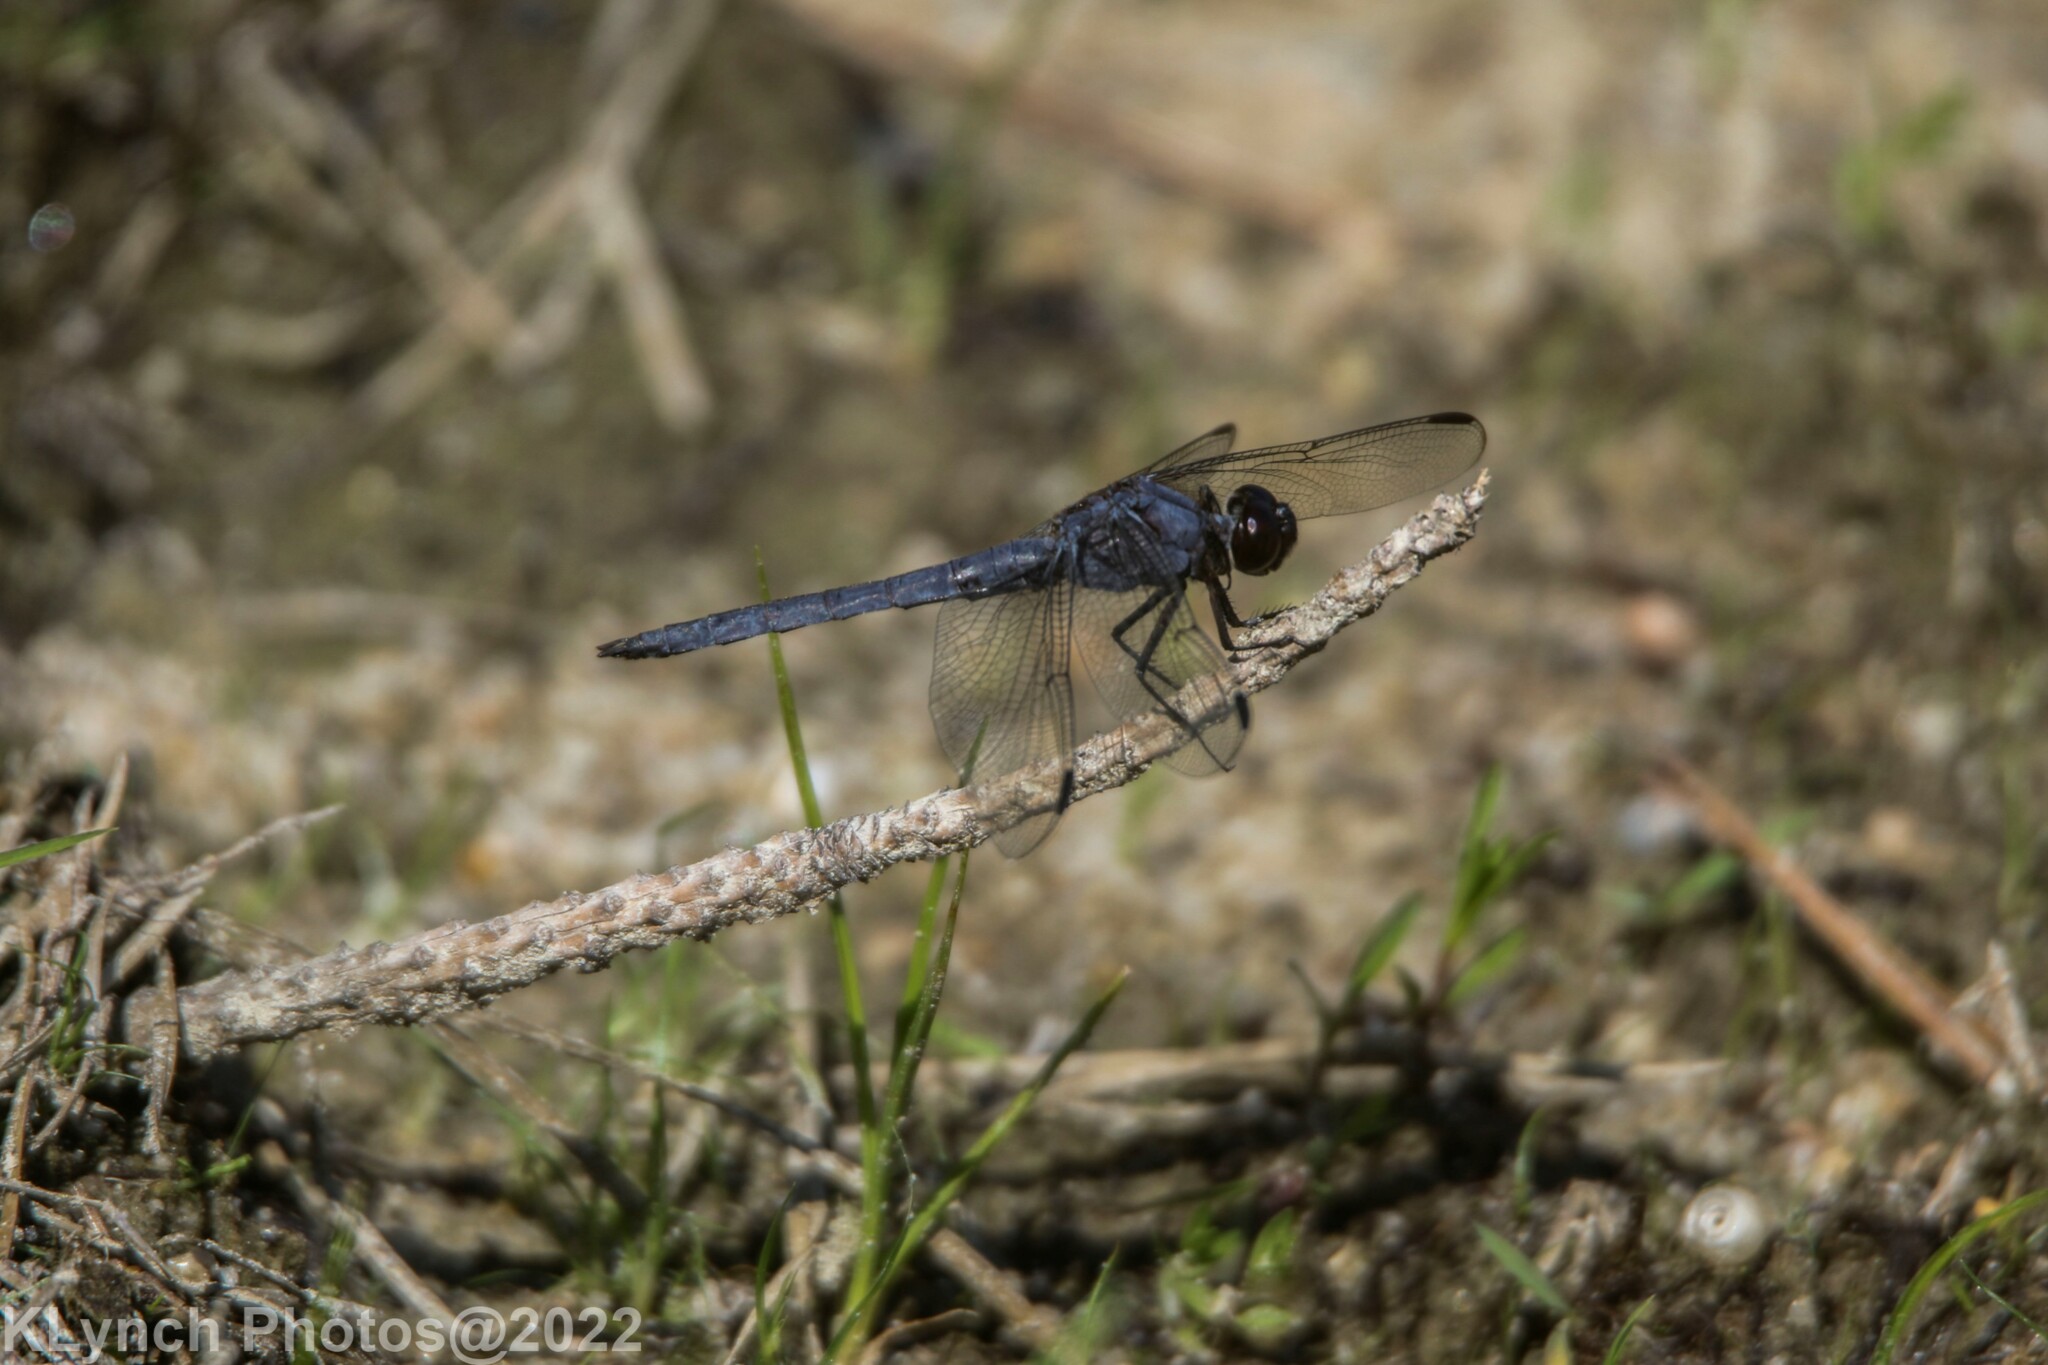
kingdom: Animalia
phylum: Arthropoda
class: Insecta
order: Odonata
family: Libellulidae
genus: Libellula
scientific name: Libellula incesta
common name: Slaty skimmer
